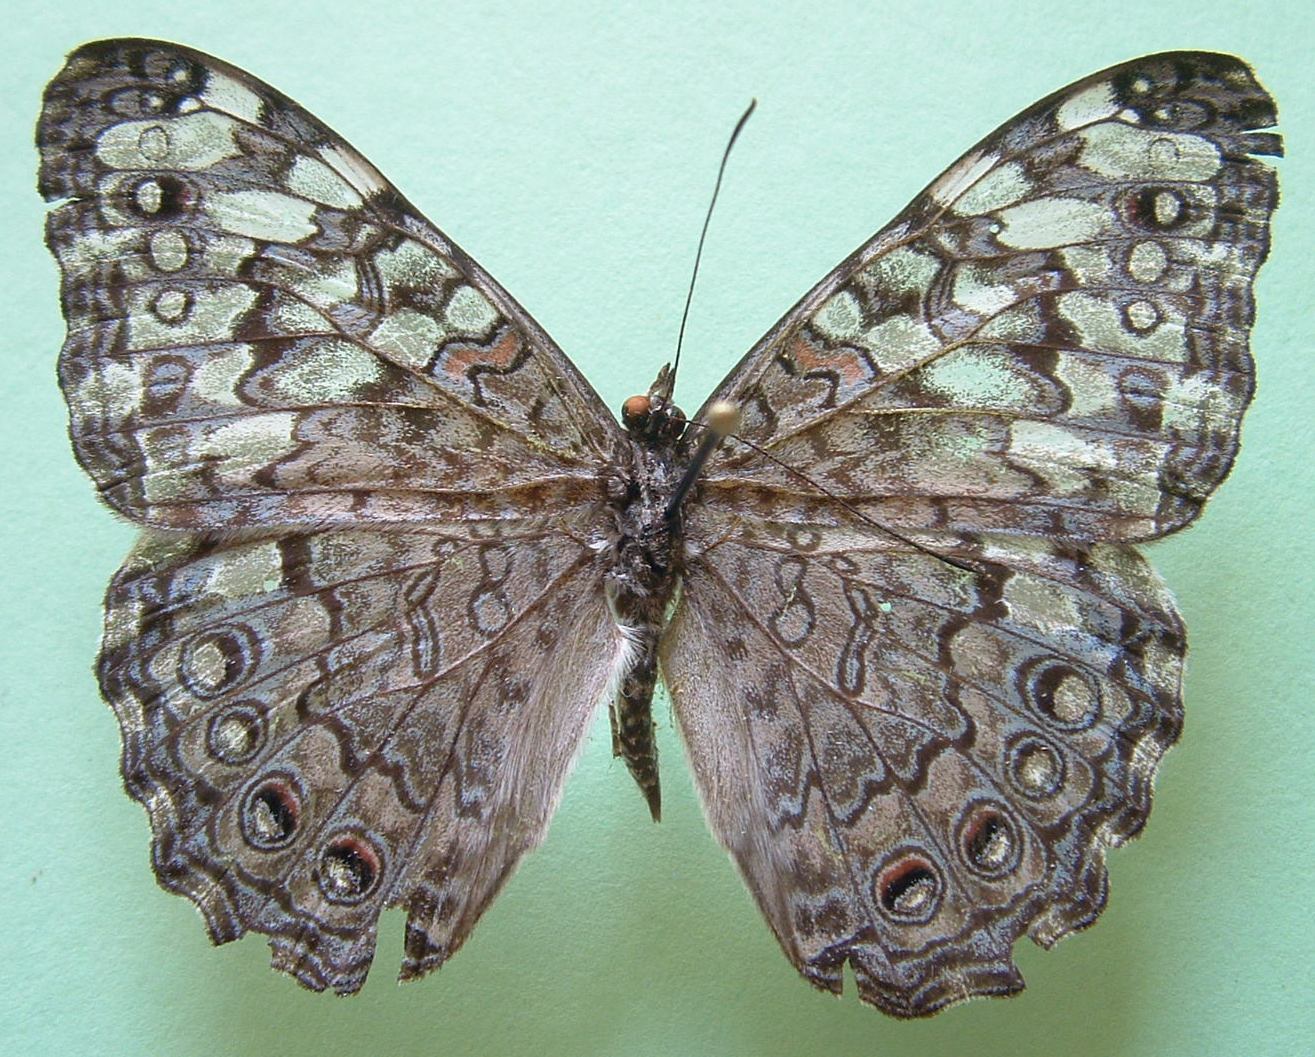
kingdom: Animalia
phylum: Arthropoda
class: Insecta
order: Lepidoptera
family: Nymphalidae
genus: Hamadryas
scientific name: Hamadryas februa
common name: Gray cracker
